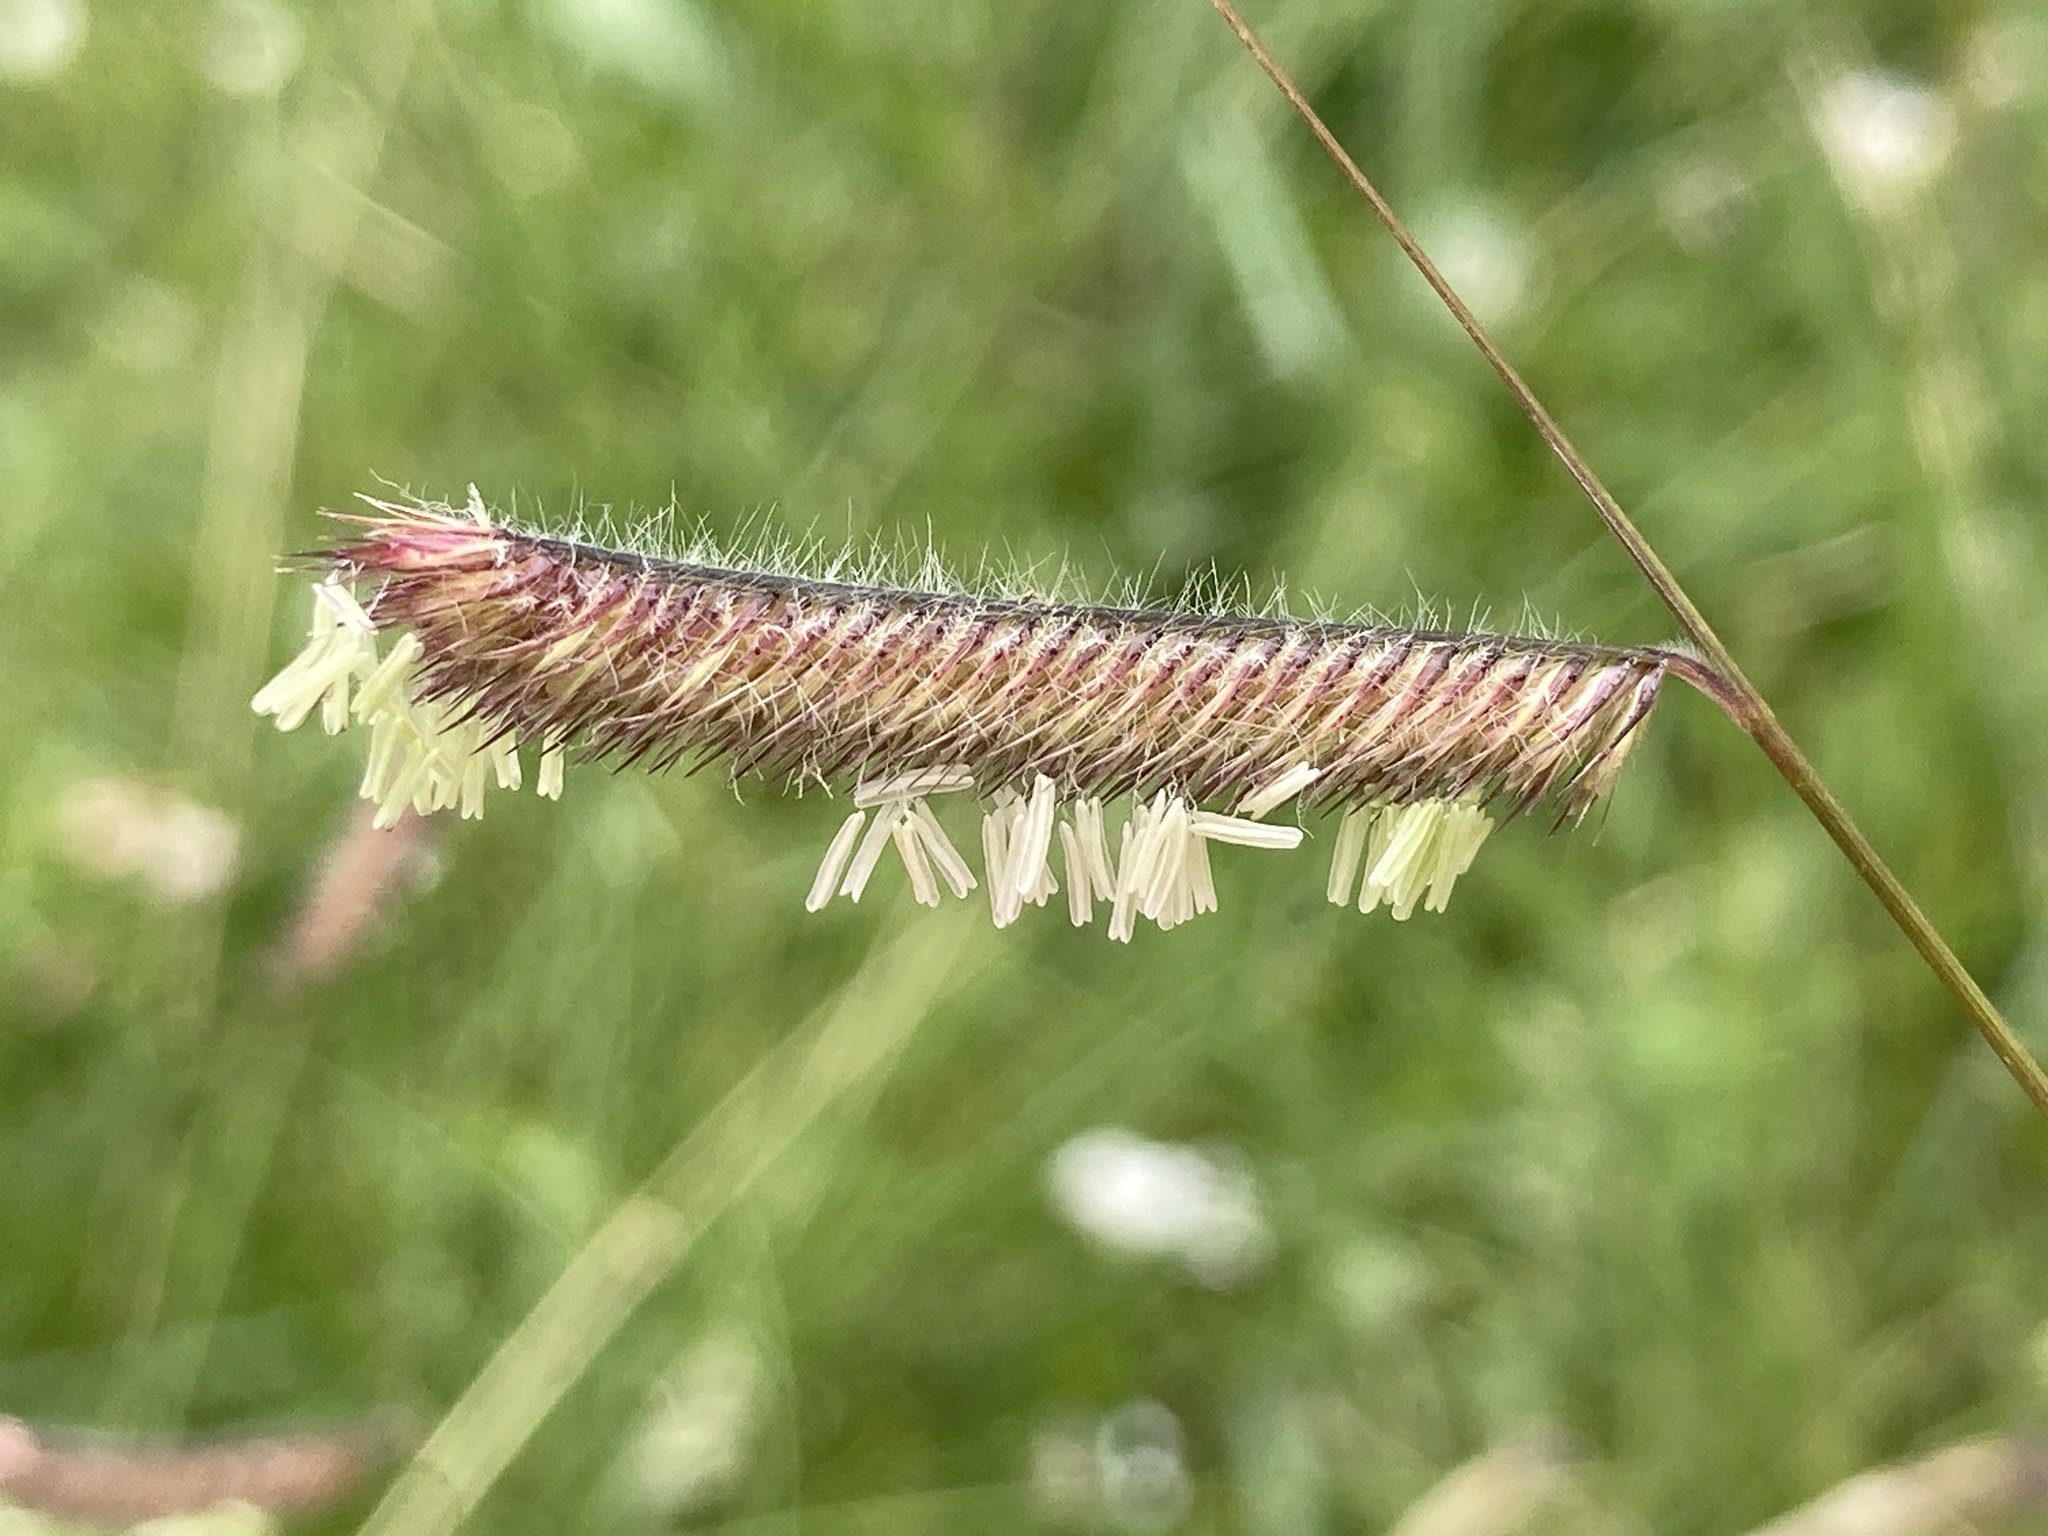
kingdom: Plantae
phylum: Tracheophyta
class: Liliopsida
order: Poales
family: Poaceae
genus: Bouteloua
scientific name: Bouteloua gracilis
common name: Blue grama
